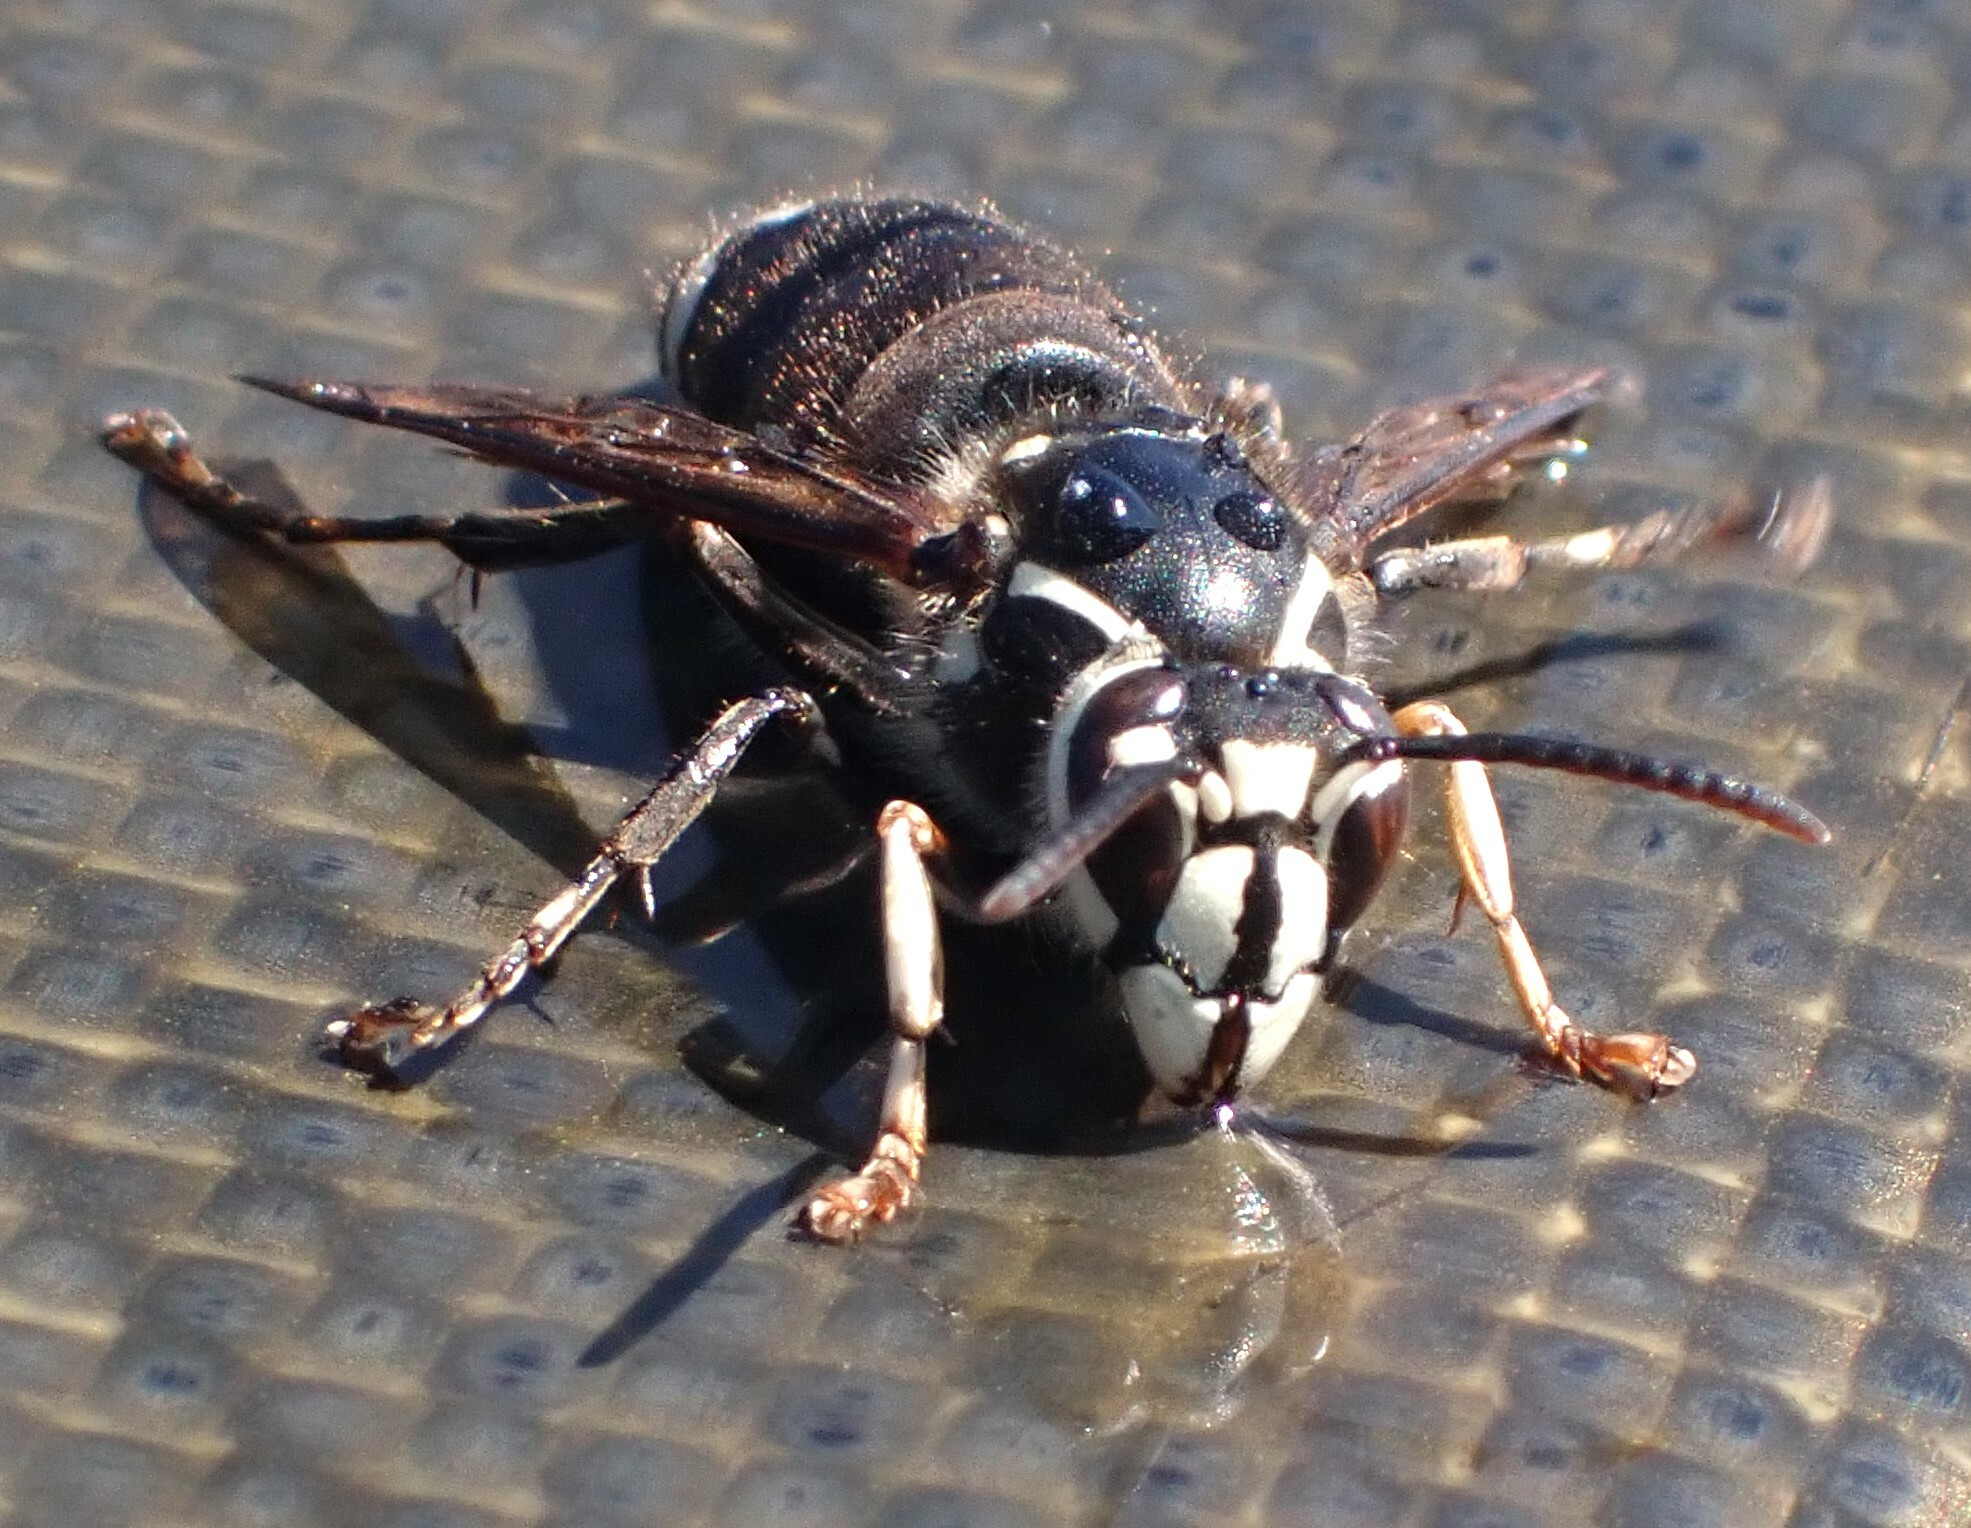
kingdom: Animalia
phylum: Arthropoda
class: Insecta
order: Hymenoptera
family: Vespidae
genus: Dolichovespula
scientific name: Dolichovespula maculata
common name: Bald-faced hornet
